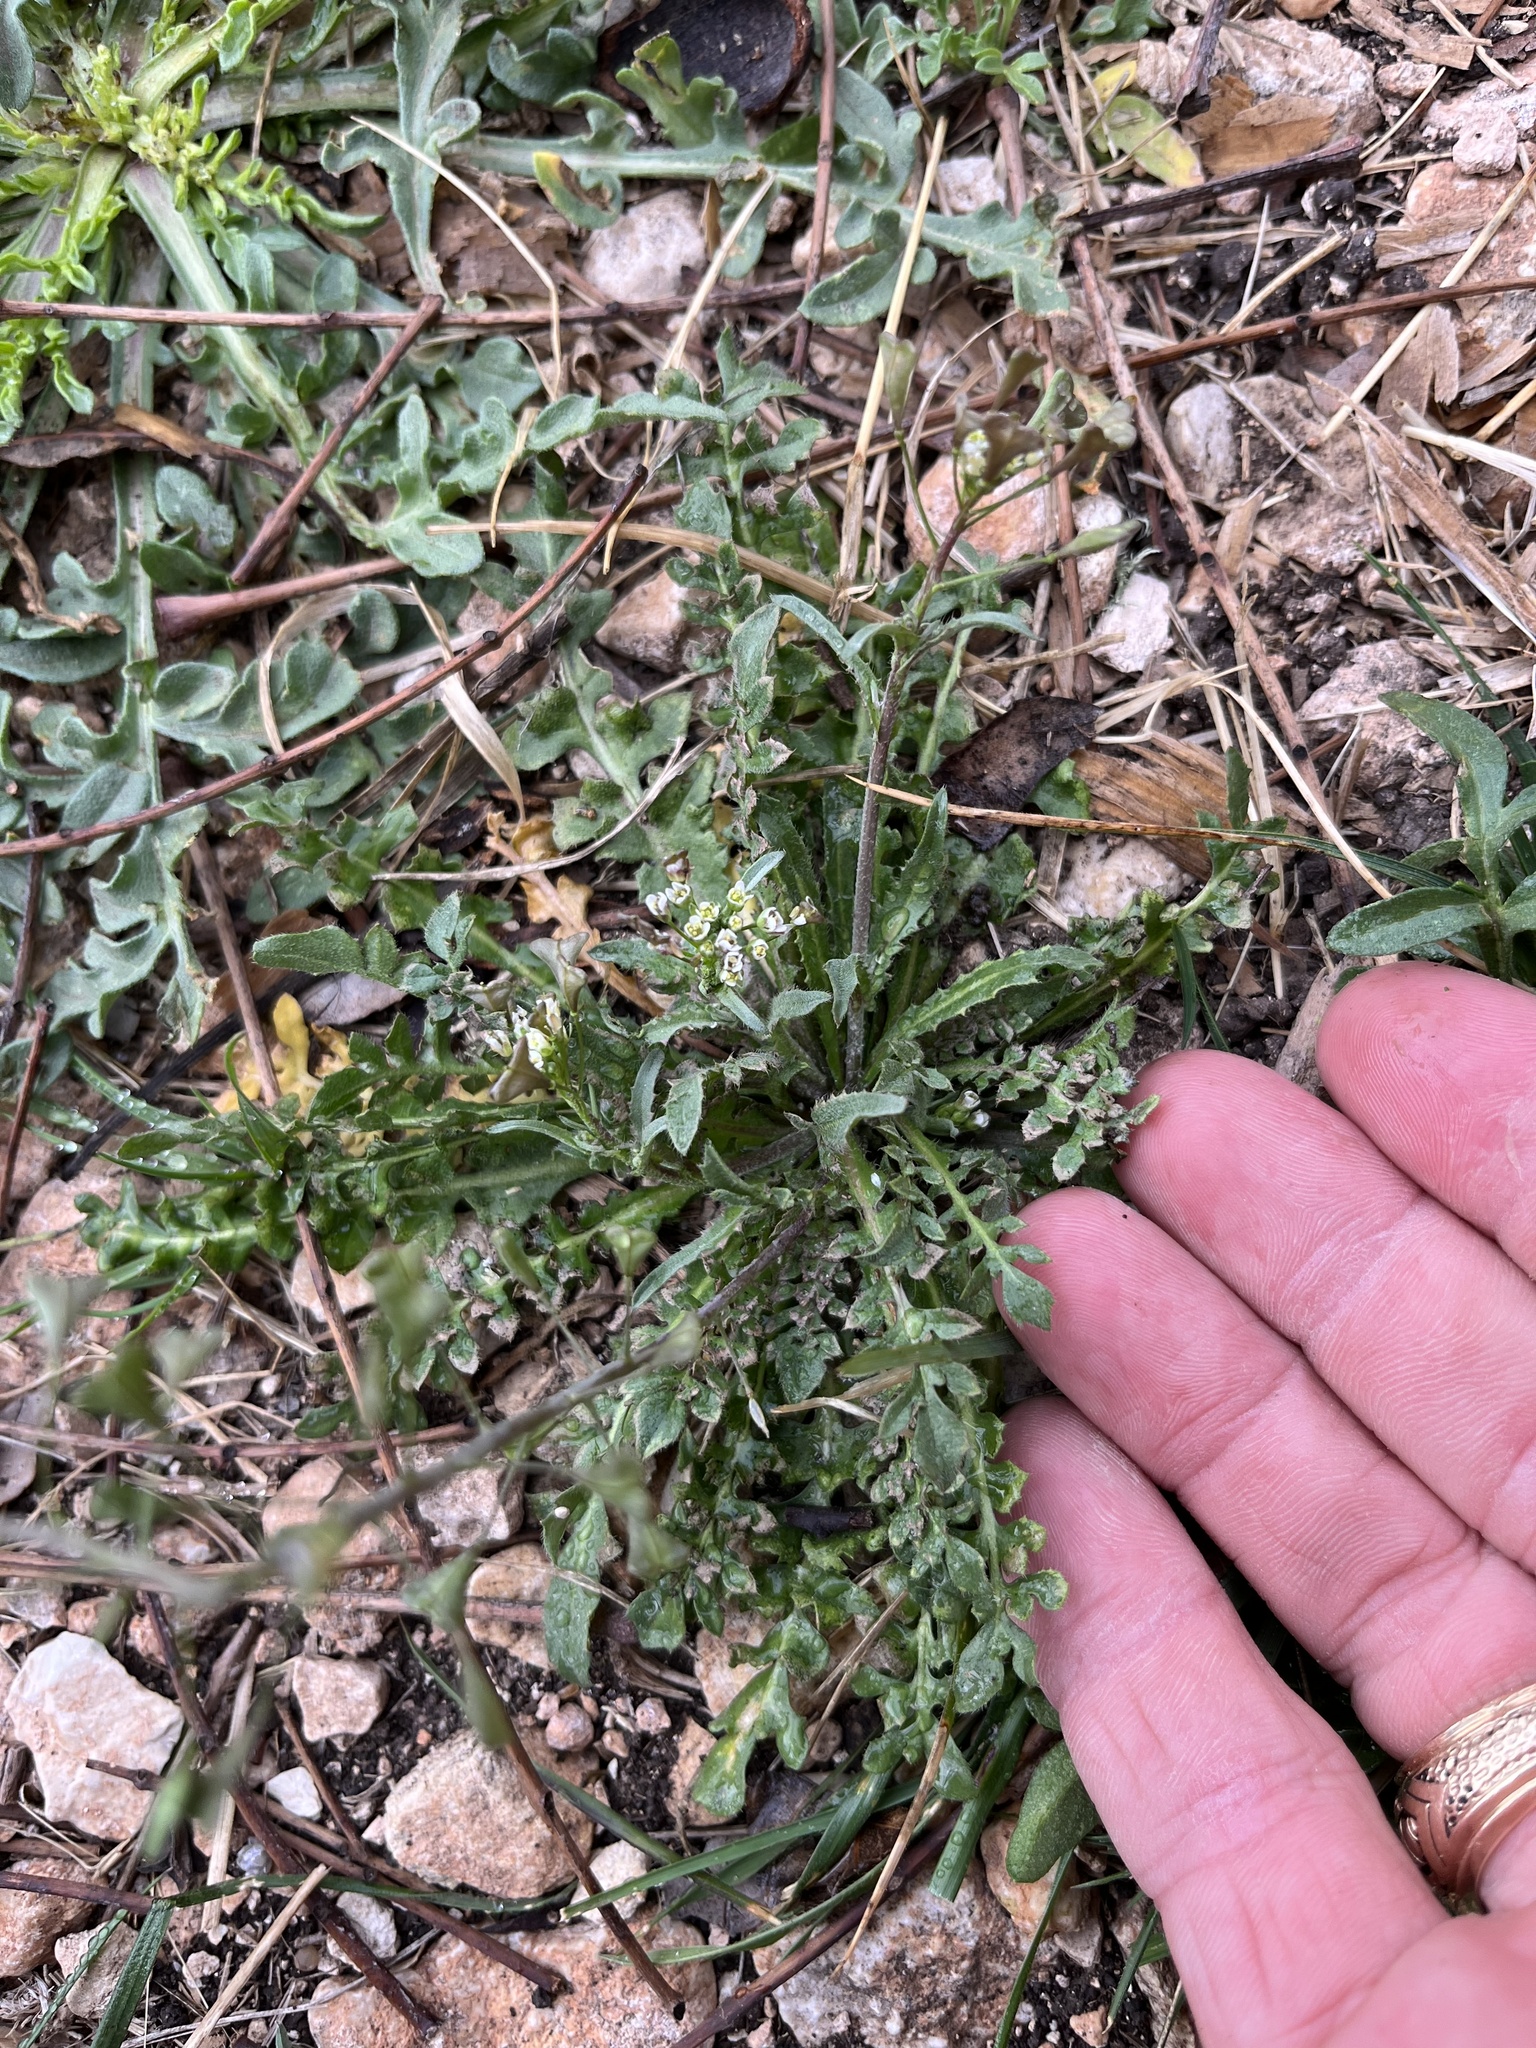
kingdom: Plantae
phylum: Tracheophyta
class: Magnoliopsida
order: Brassicales
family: Brassicaceae
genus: Capsella
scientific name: Capsella bursa-pastoris
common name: Shepherd's purse
